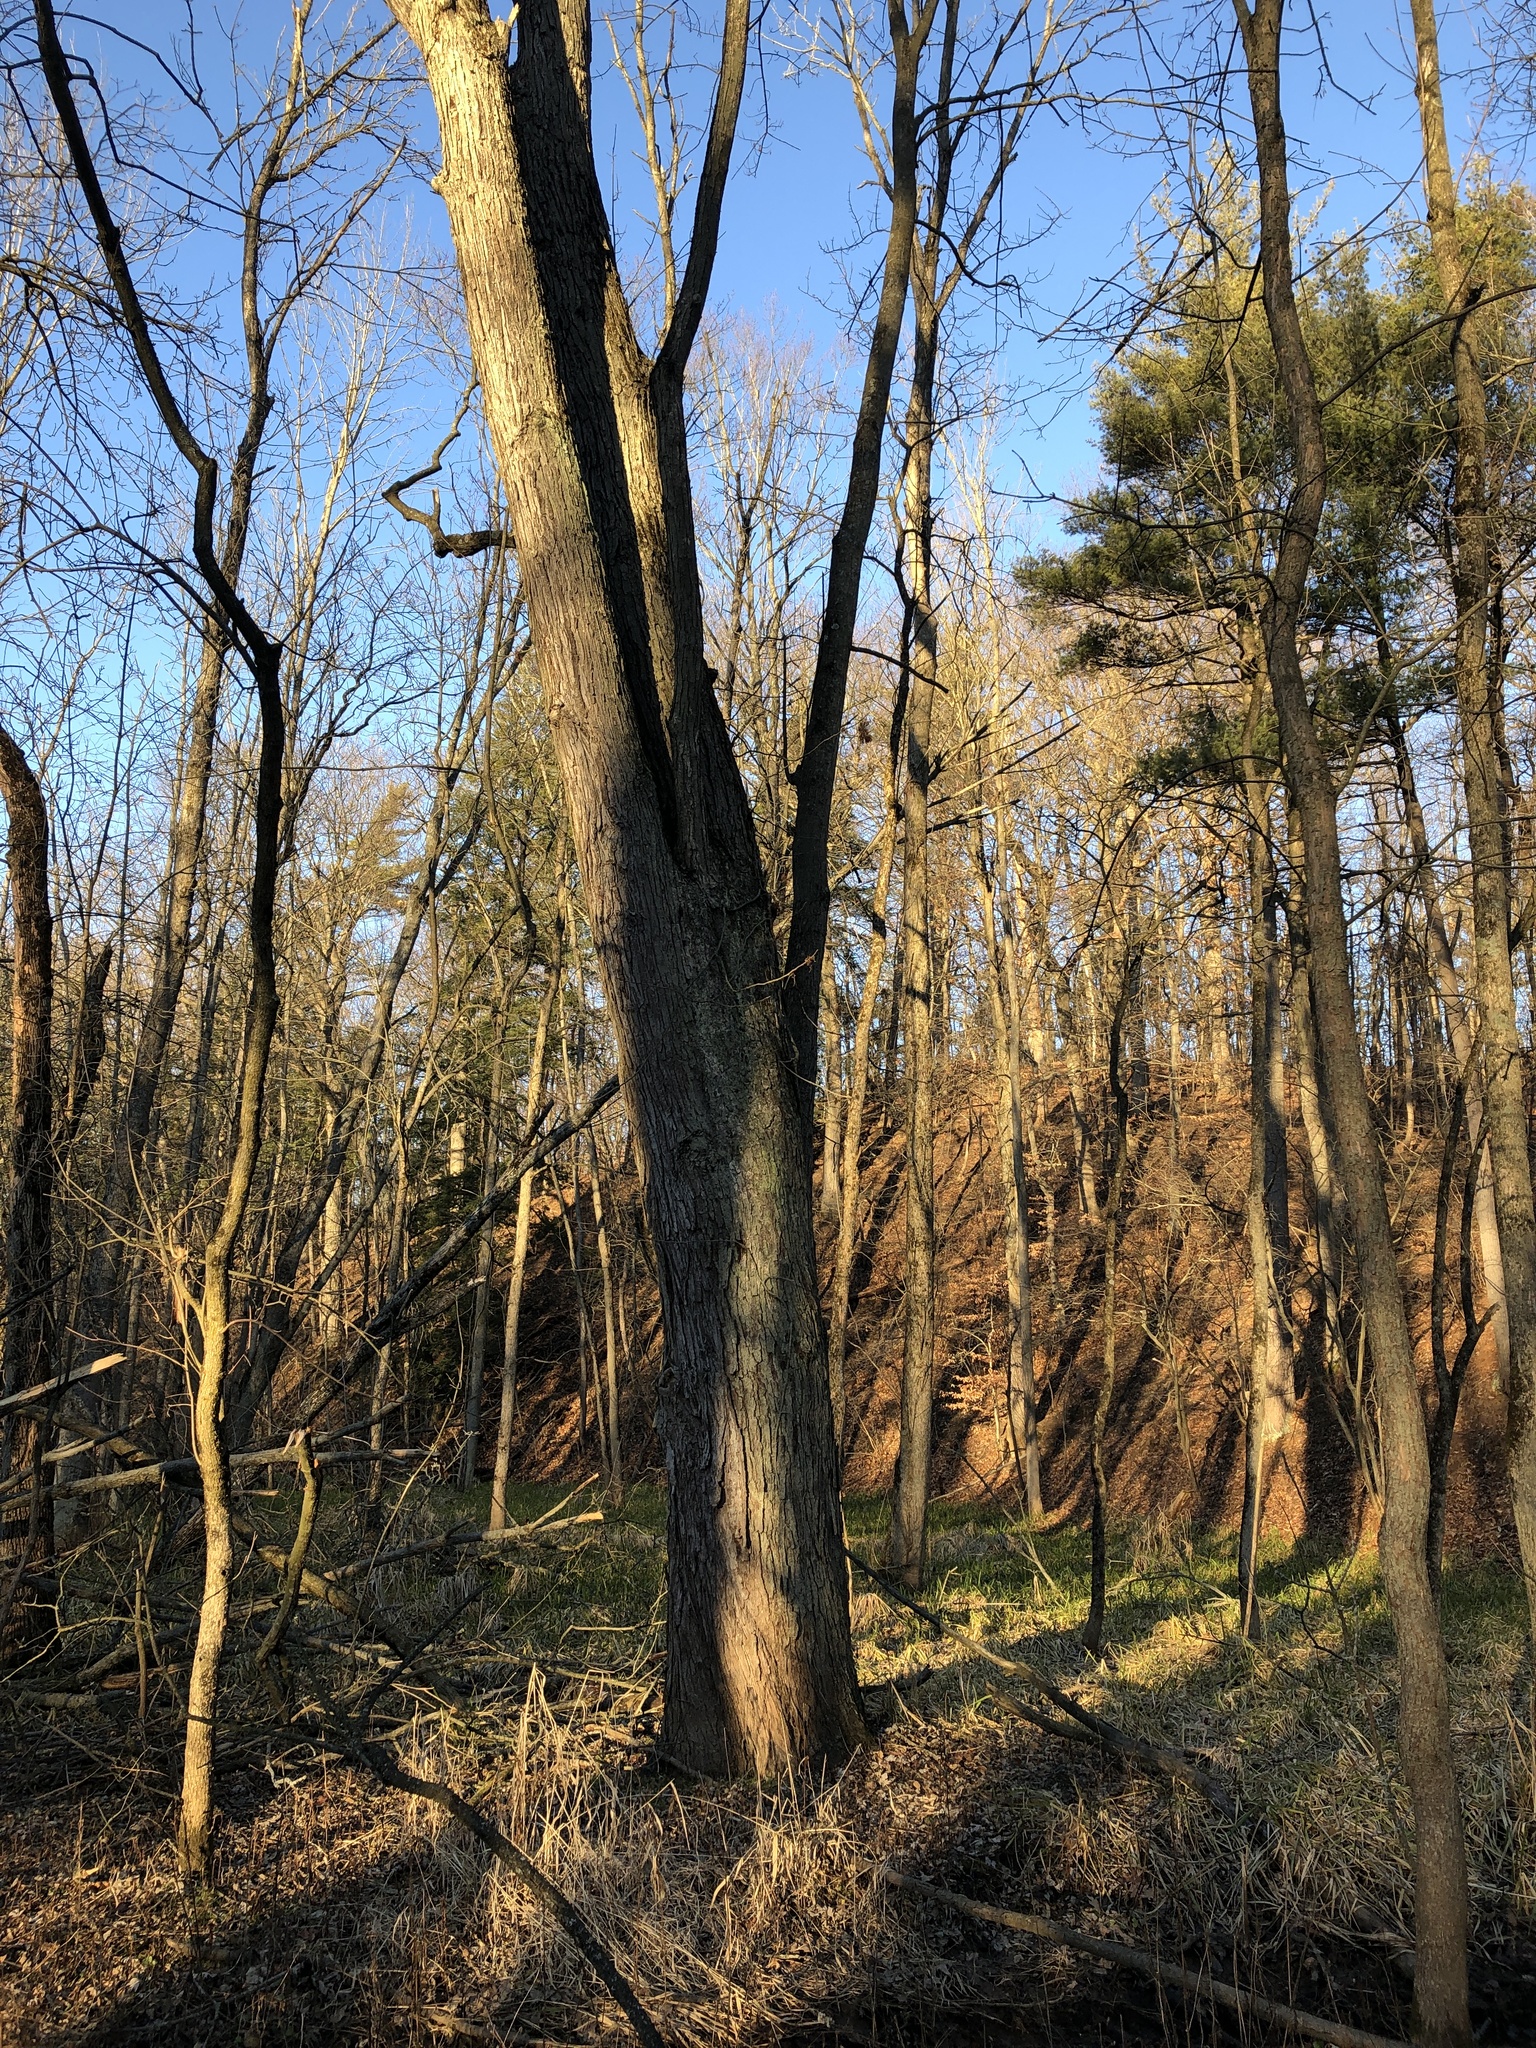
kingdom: Plantae
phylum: Tracheophyta
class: Magnoliopsida
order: Sapindales
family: Sapindaceae
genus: Acer
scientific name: Acer saccharinum
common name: Silver maple
